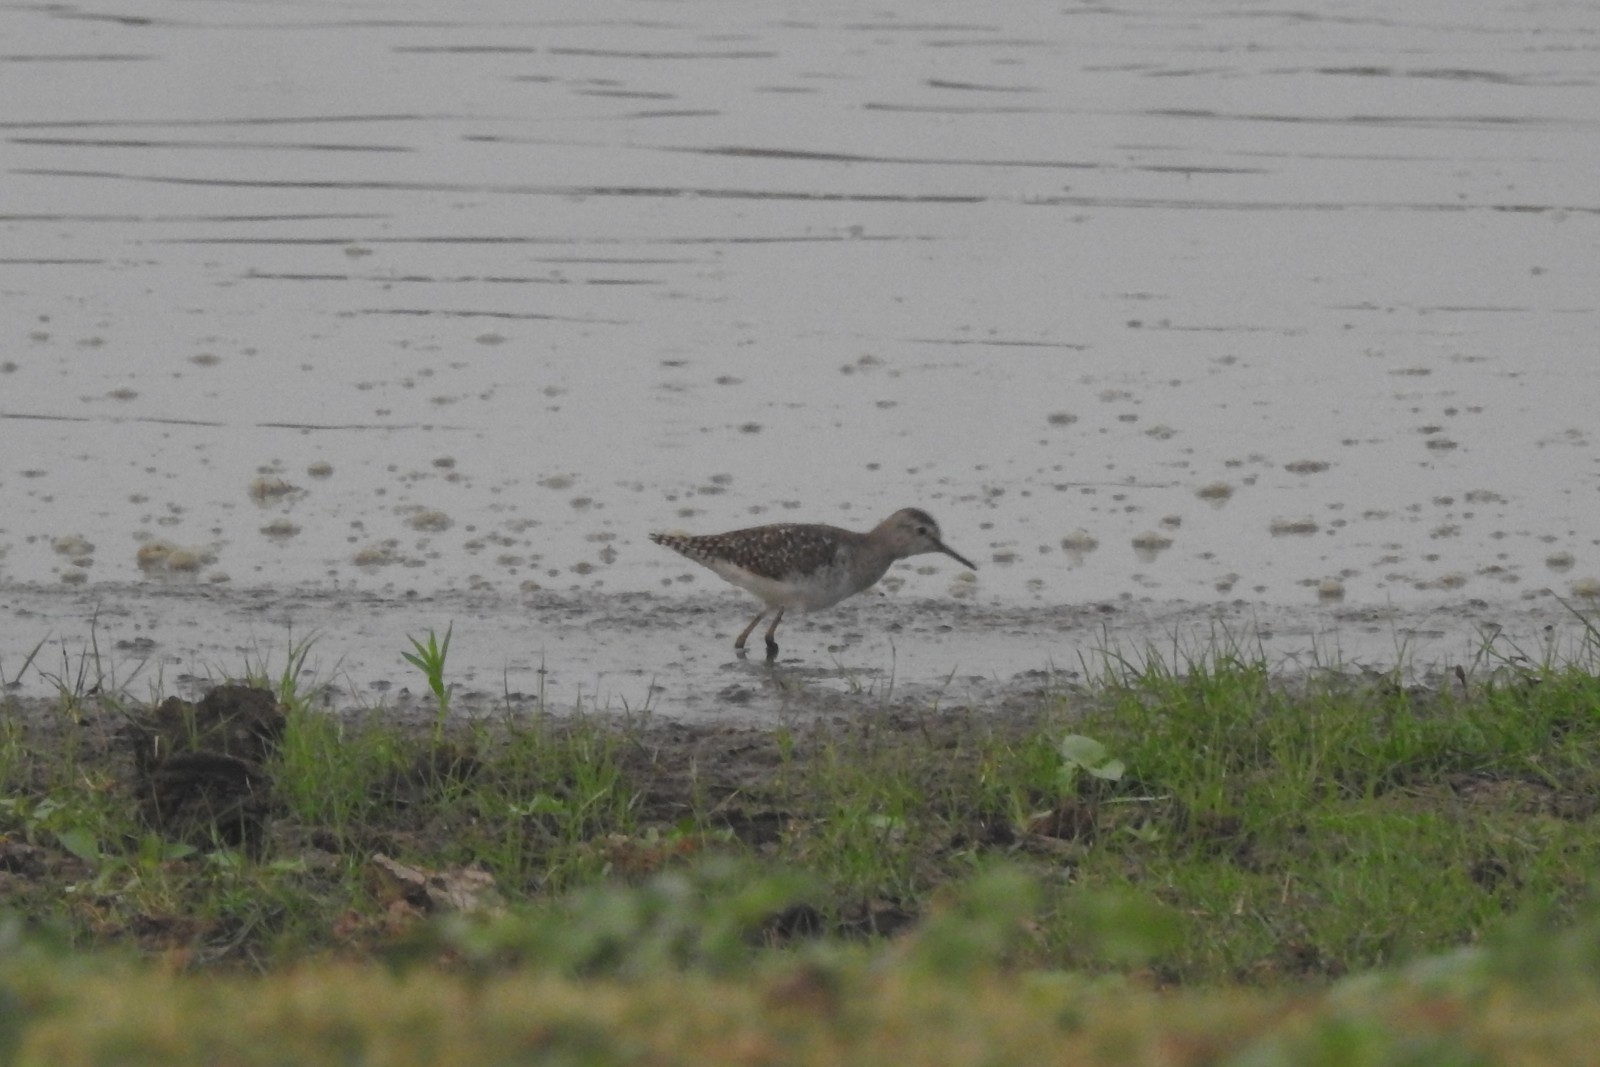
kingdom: Animalia
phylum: Chordata
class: Aves
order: Charadriiformes
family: Scolopacidae
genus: Tringa
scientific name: Tringa glareola
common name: Wood sandpiper
